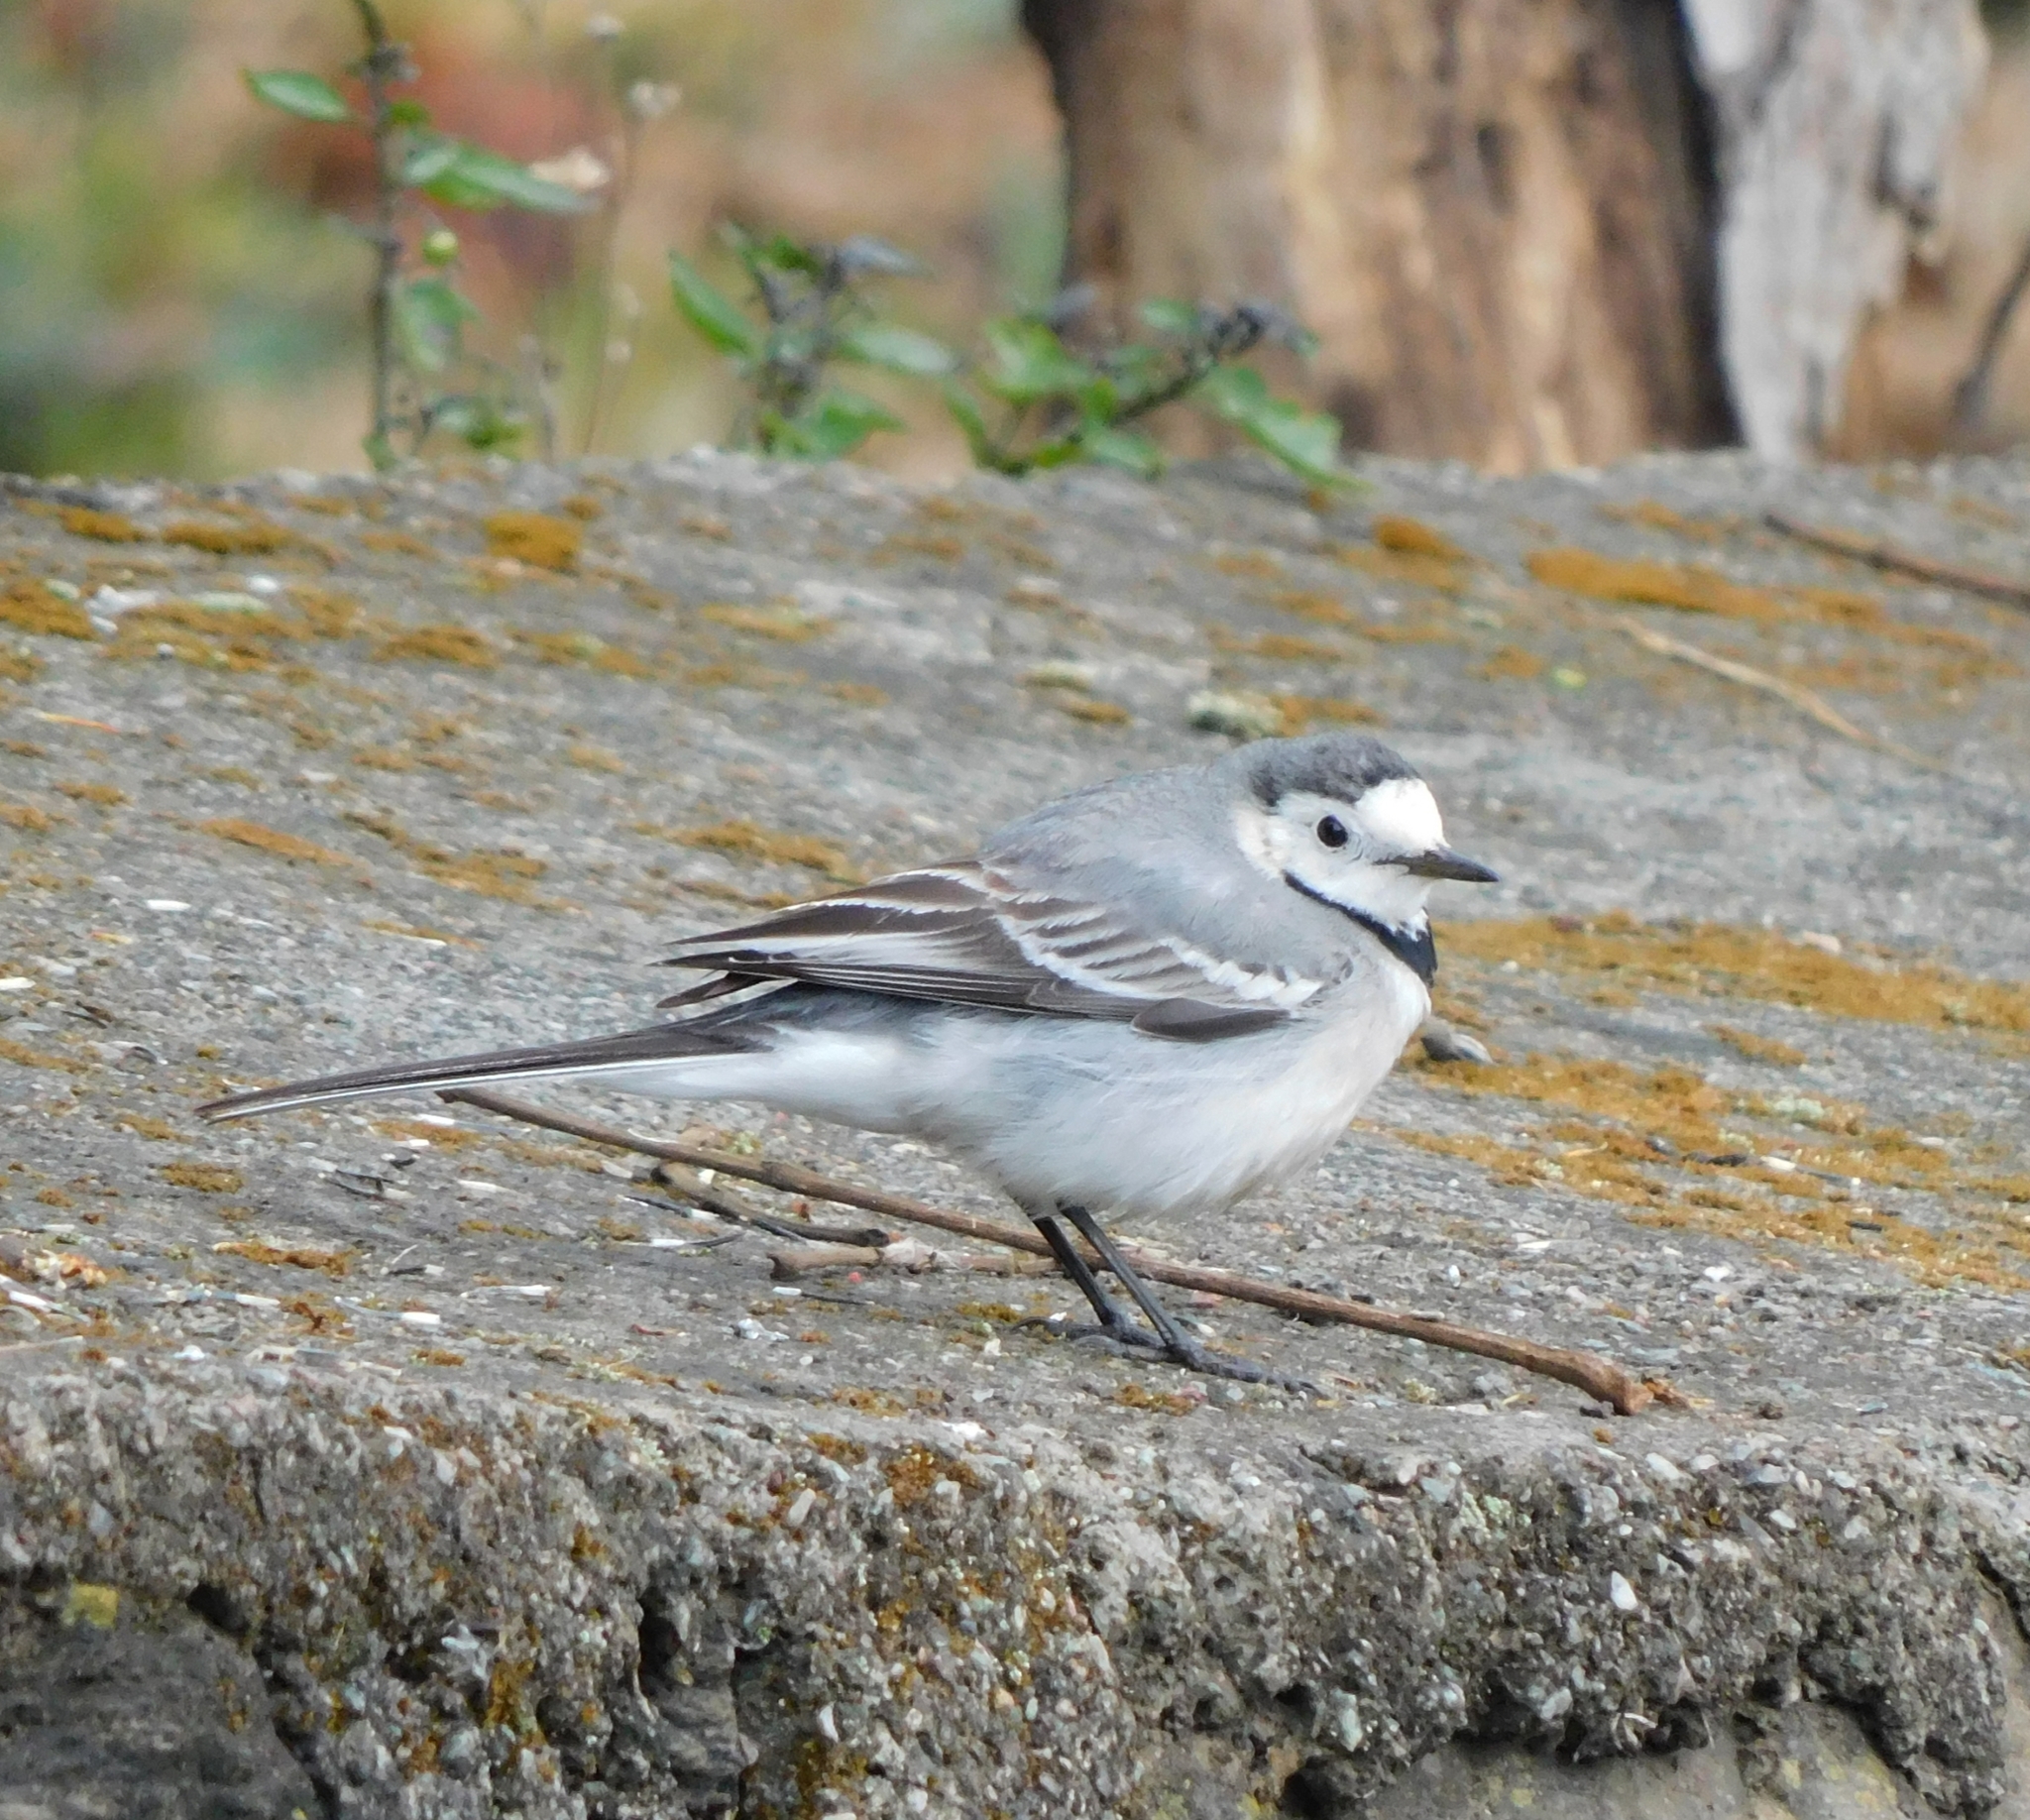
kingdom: Animalia
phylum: Chordata
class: Aves
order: Passeriformes
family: Motacillidae
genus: Motacilla
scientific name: Motacilla alba
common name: White wagtail
